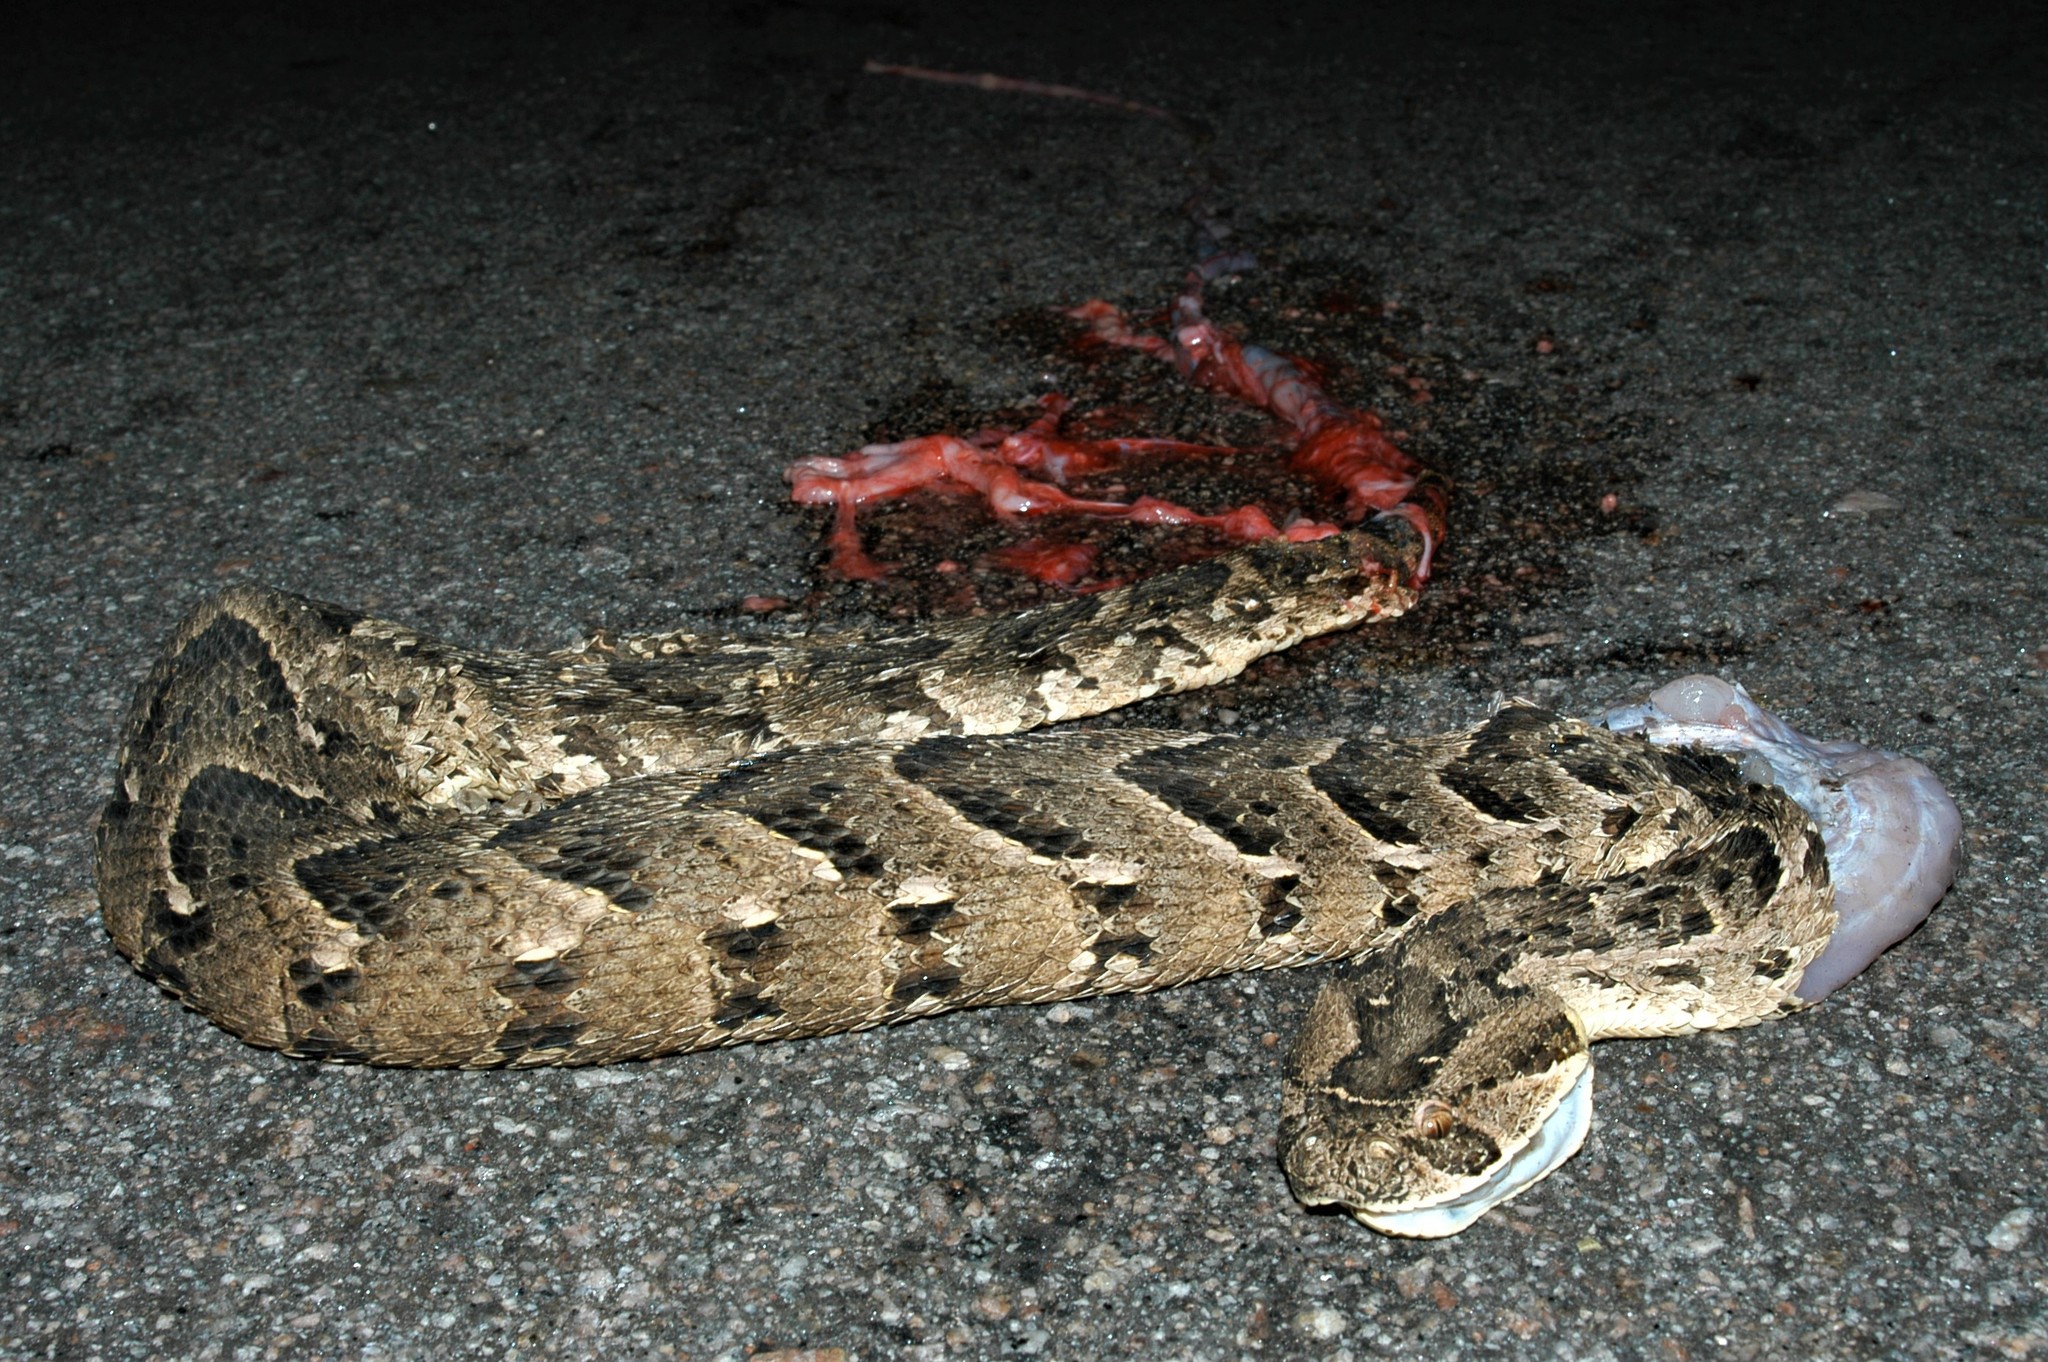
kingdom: Animalia
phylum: Chordata
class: Squamata
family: Viperidae
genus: Bitis
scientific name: Bitis arietans
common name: Puff adder
